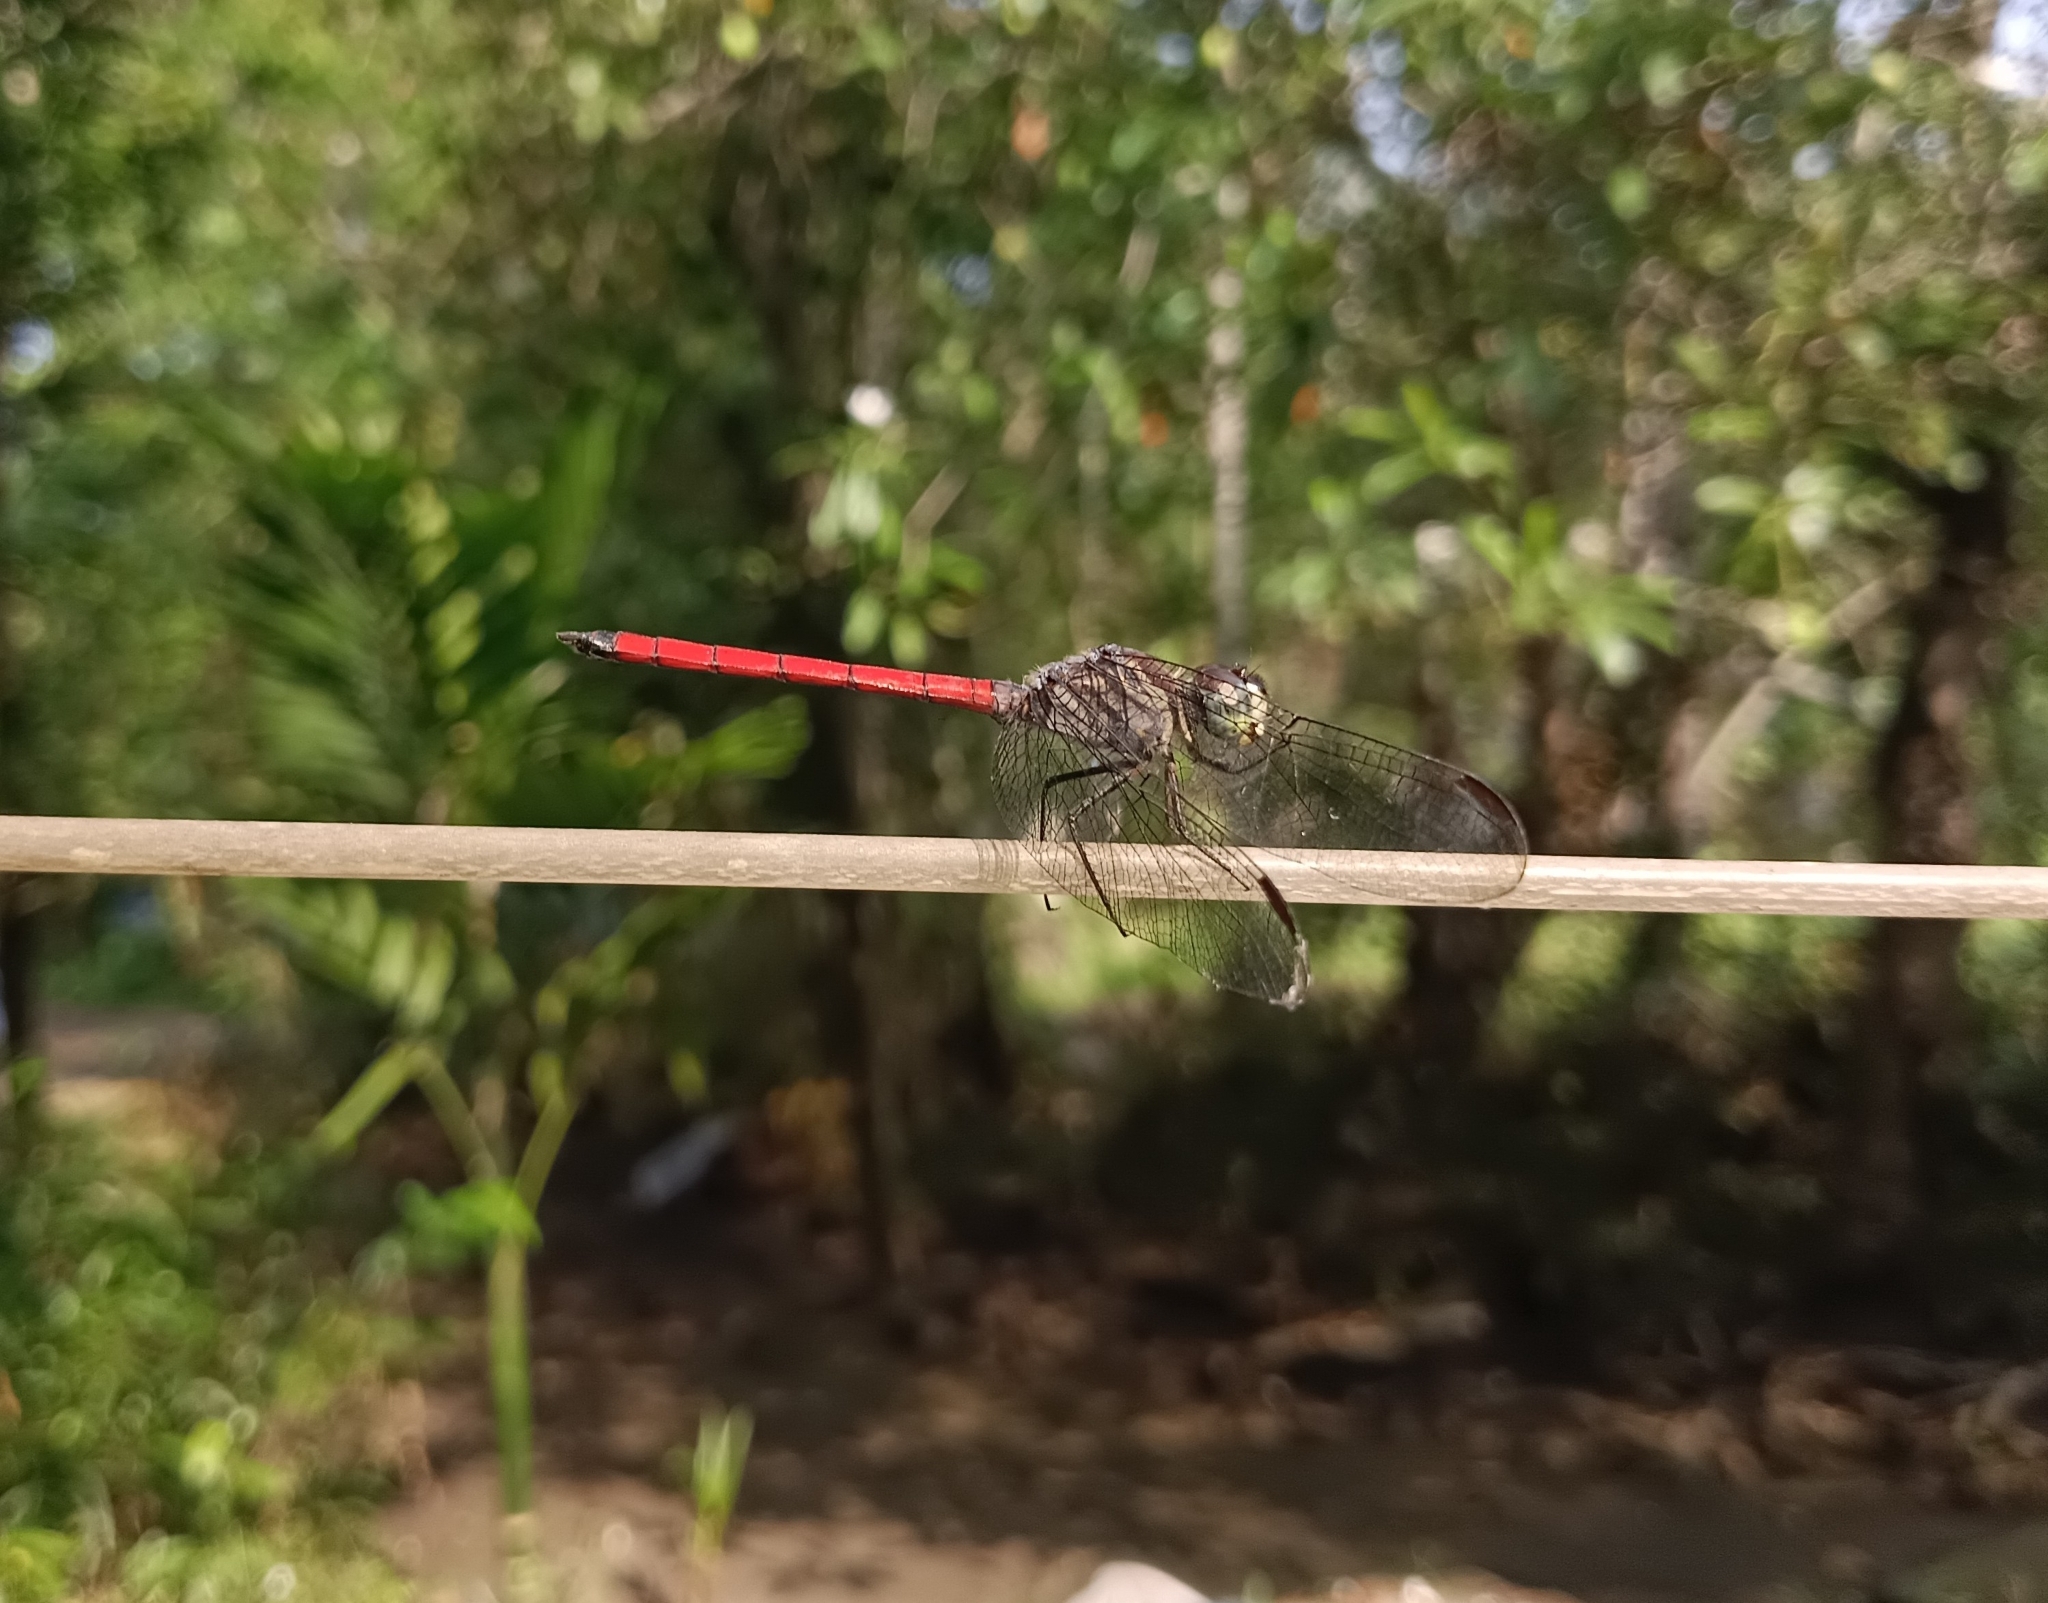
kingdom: Animalia
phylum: Arthropoda
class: Insecta
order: Odonata
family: Libellulidae
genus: Lathrecista
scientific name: Lathrecista asiatica
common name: Scarlet grenadier
